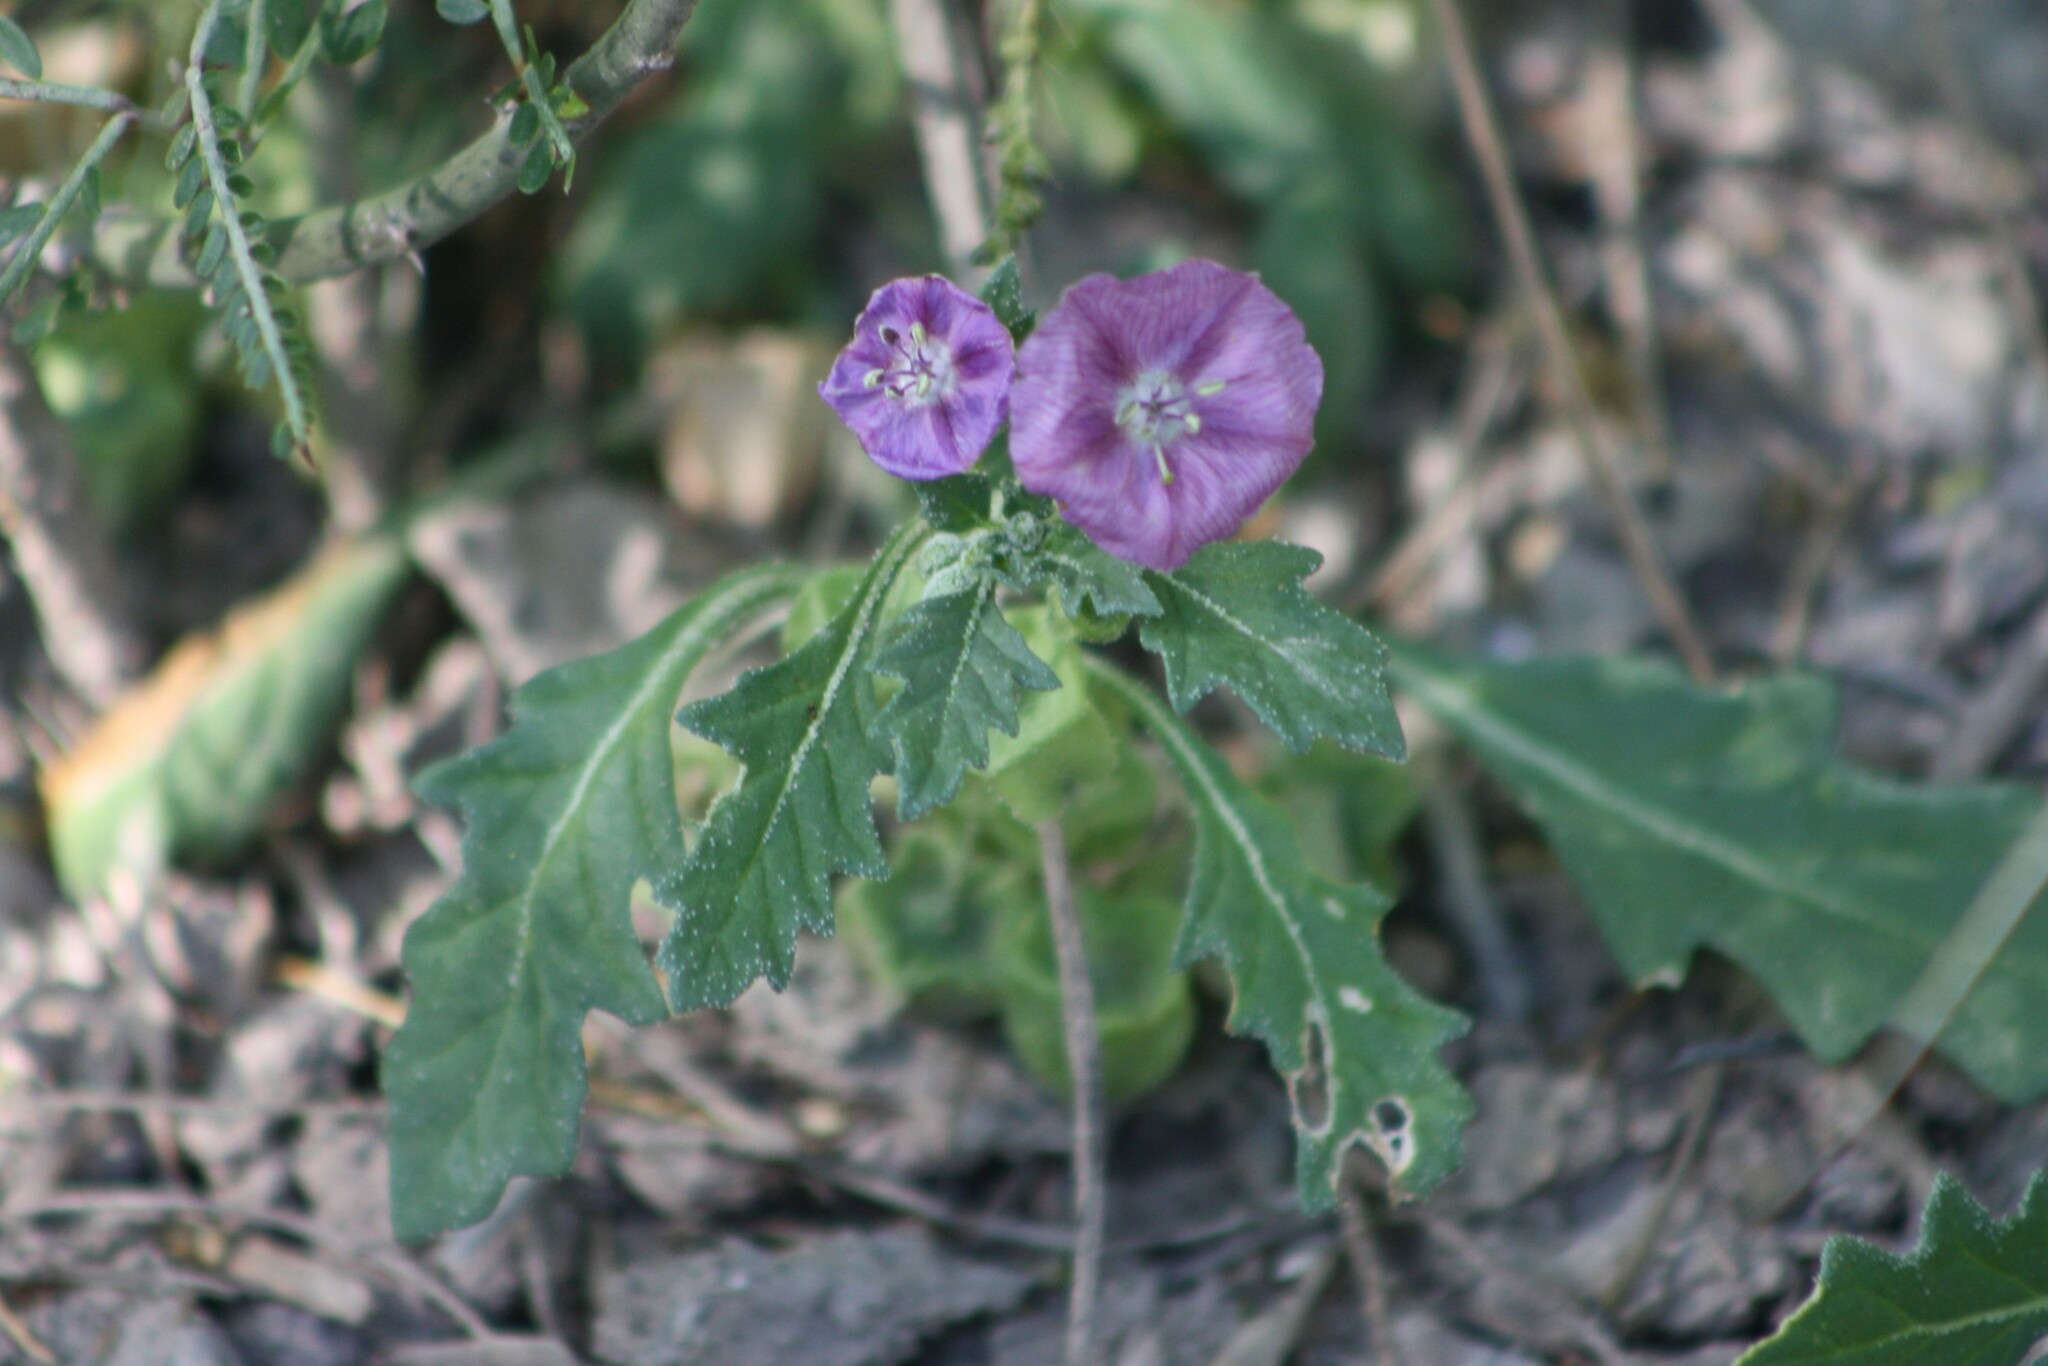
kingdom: Plantae
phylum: Tracheophyta
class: Magnoliopsida
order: Solanales
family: Solanaceae
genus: Quincula
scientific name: Quincula lobata
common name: Purple-ground-cherry
